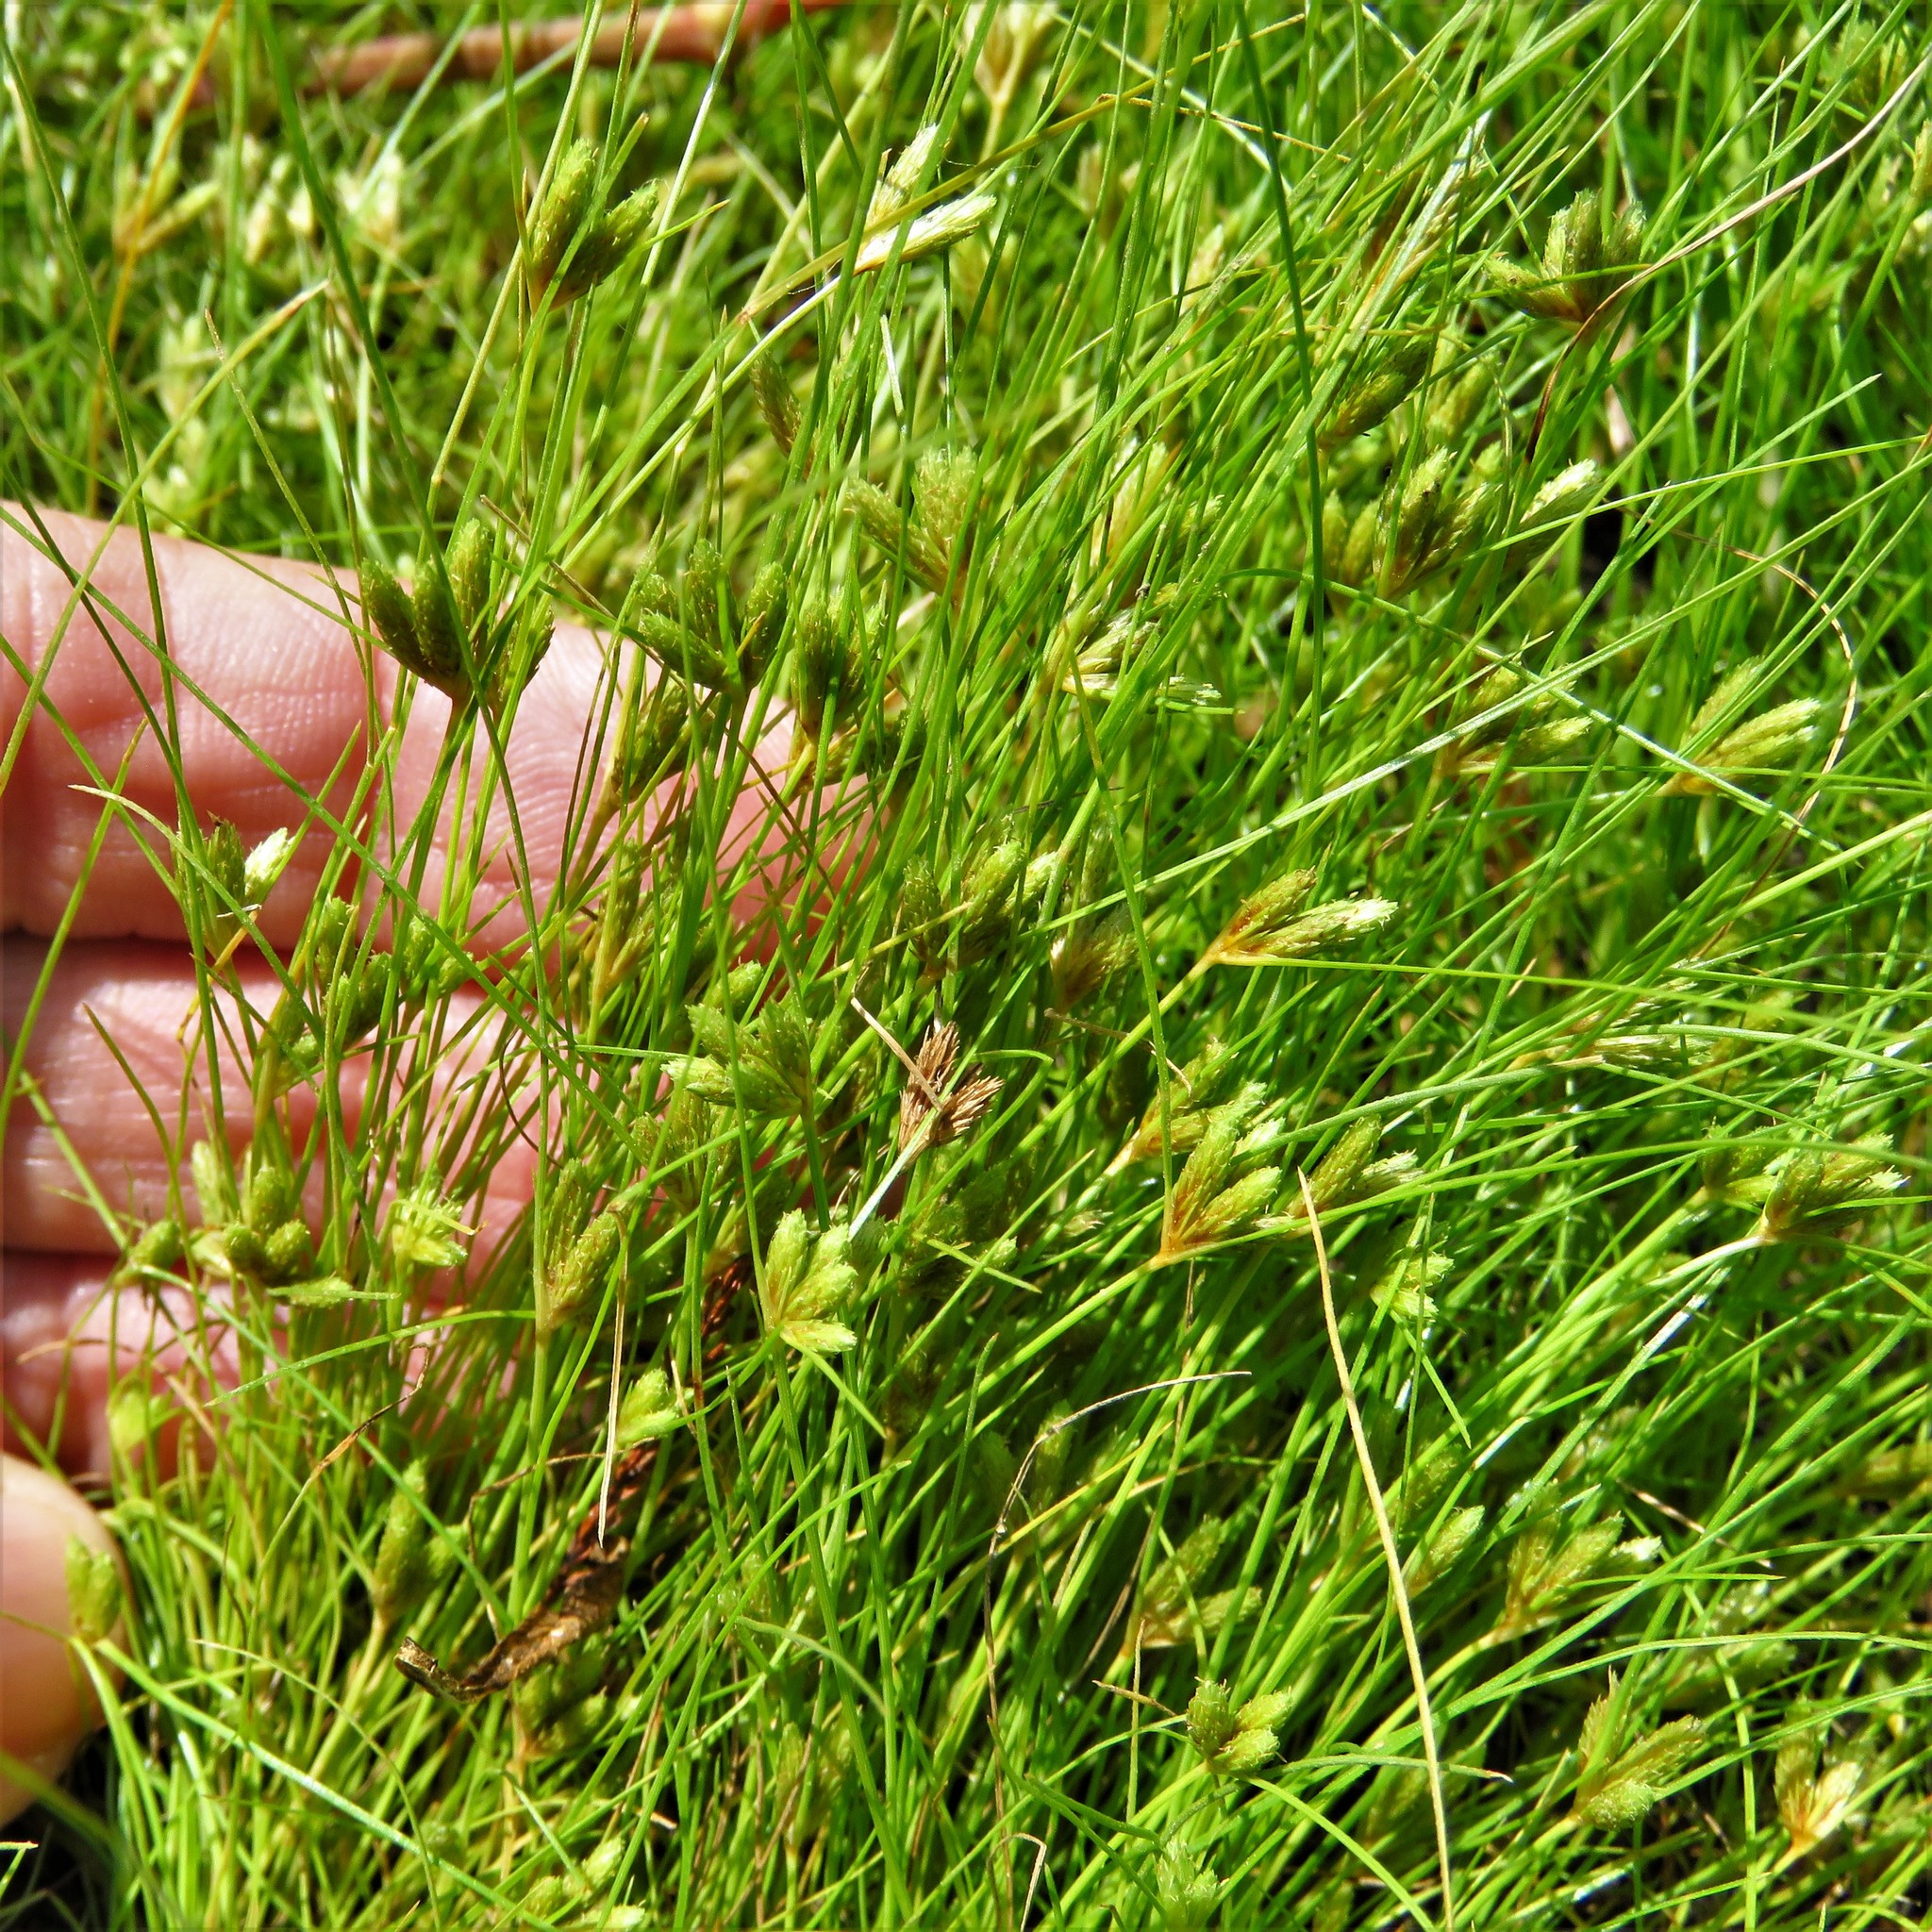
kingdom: Plantae
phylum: Tracheophyta
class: Liliopsida
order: Poales
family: Cyperaceae
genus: Fimbristylis
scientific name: Fimbristylis vahlii
